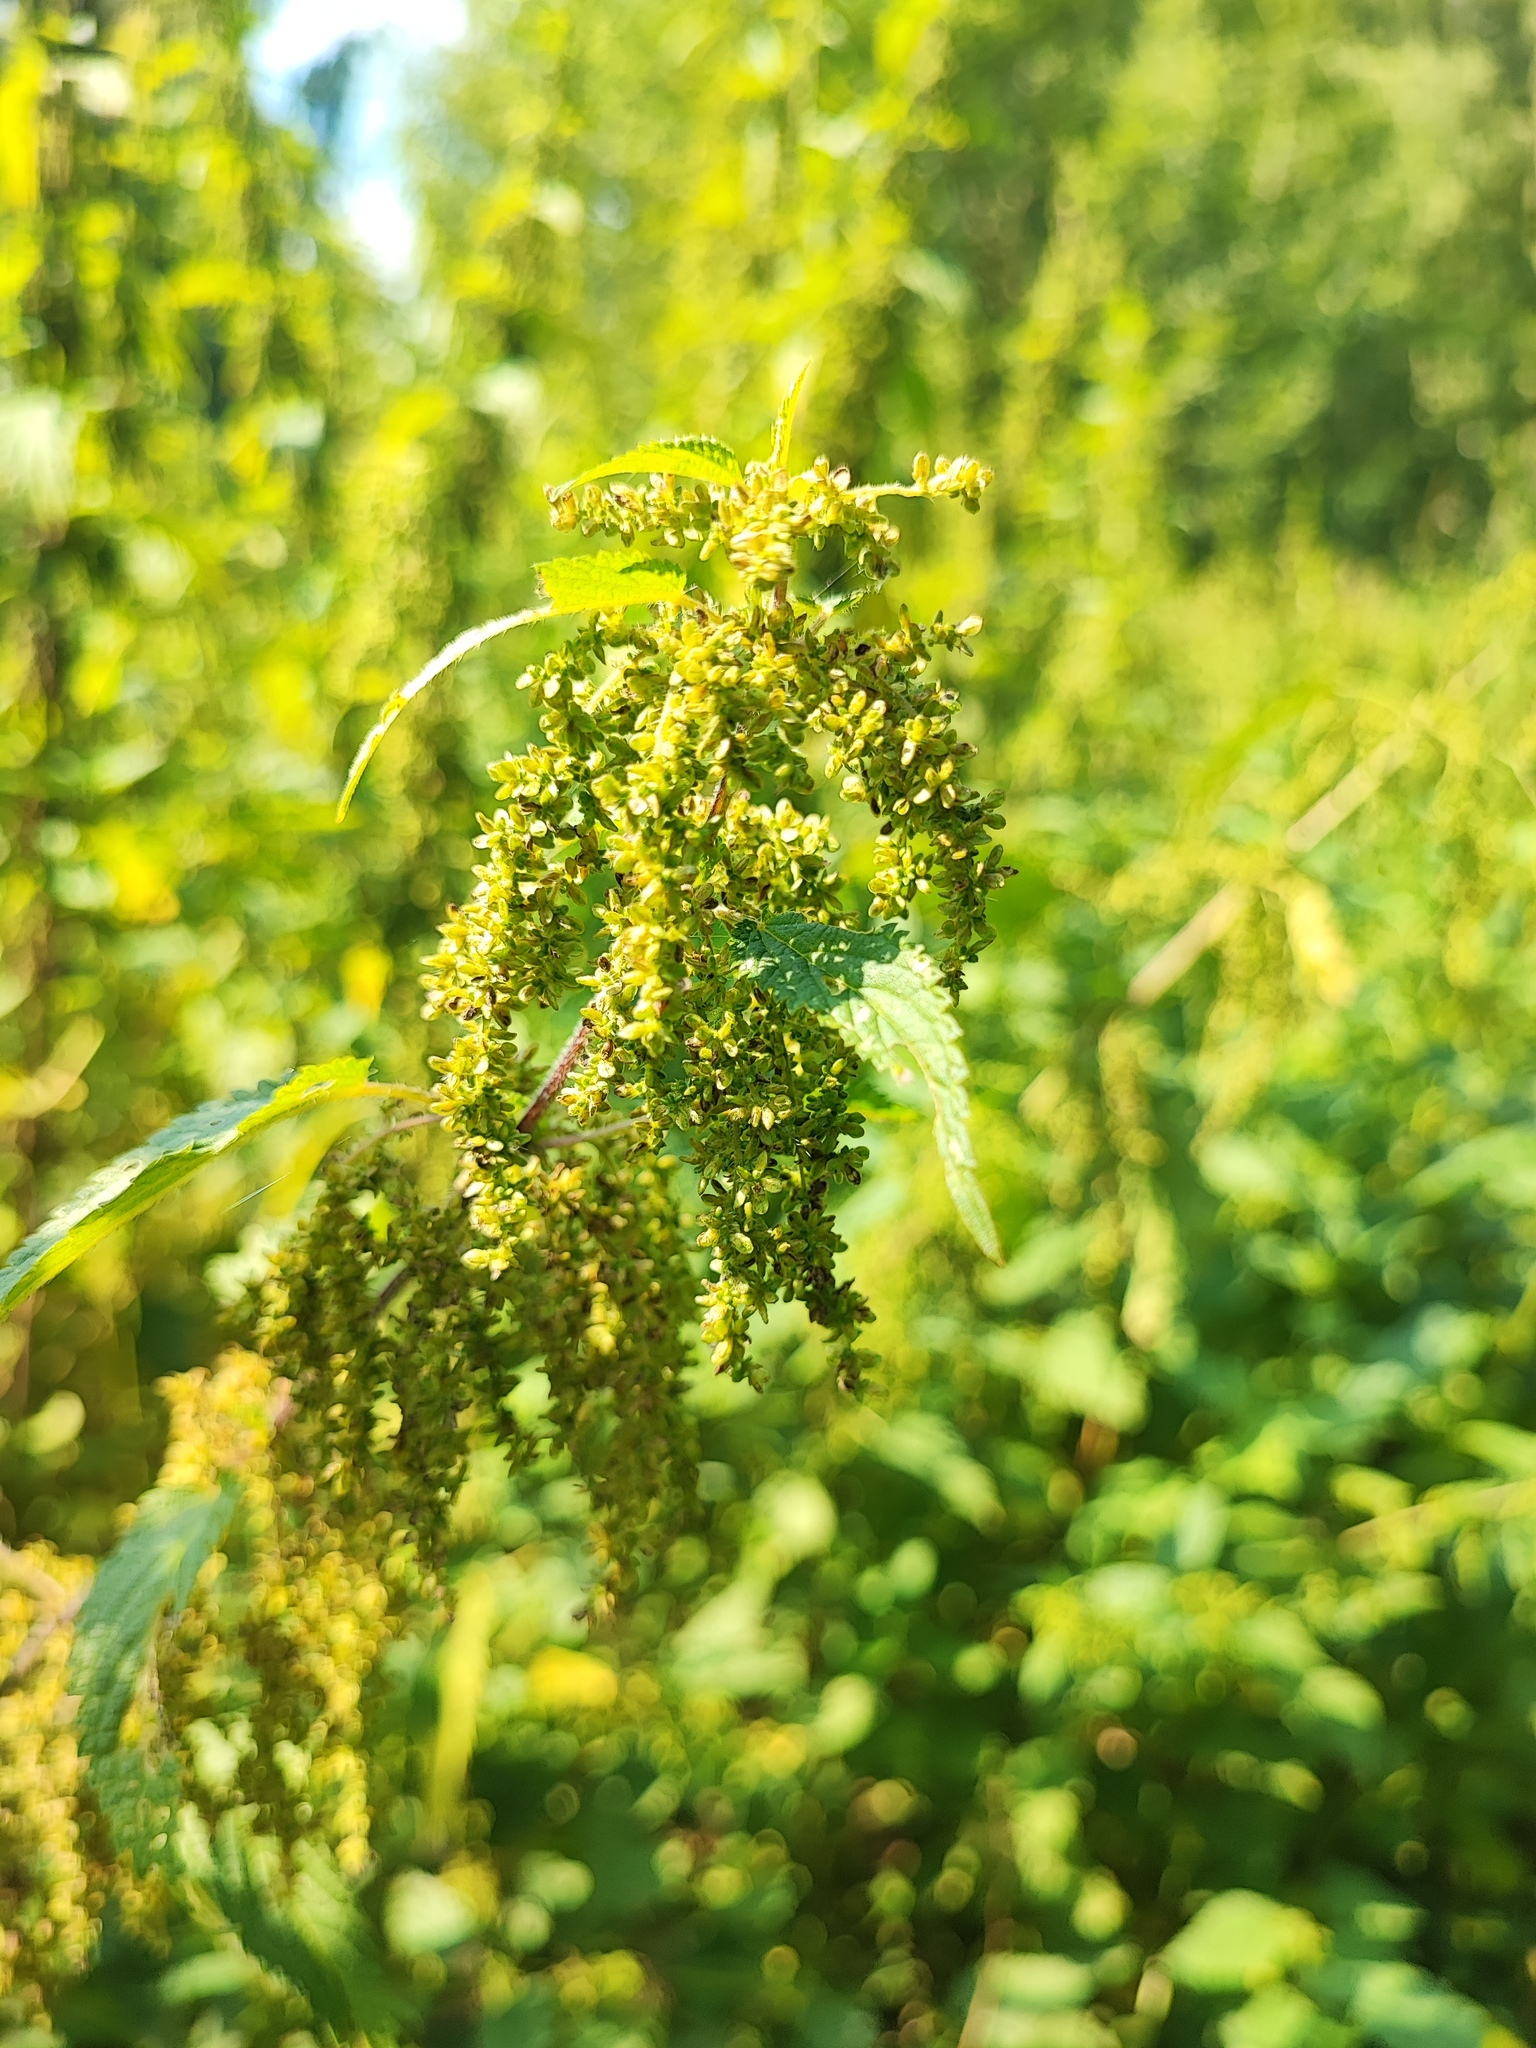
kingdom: Plantae
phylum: Tracheophyta
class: Magnoliopsida
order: Rosales
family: Urticaceae
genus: Urtica
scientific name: Urtica dioica
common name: Common nettle
